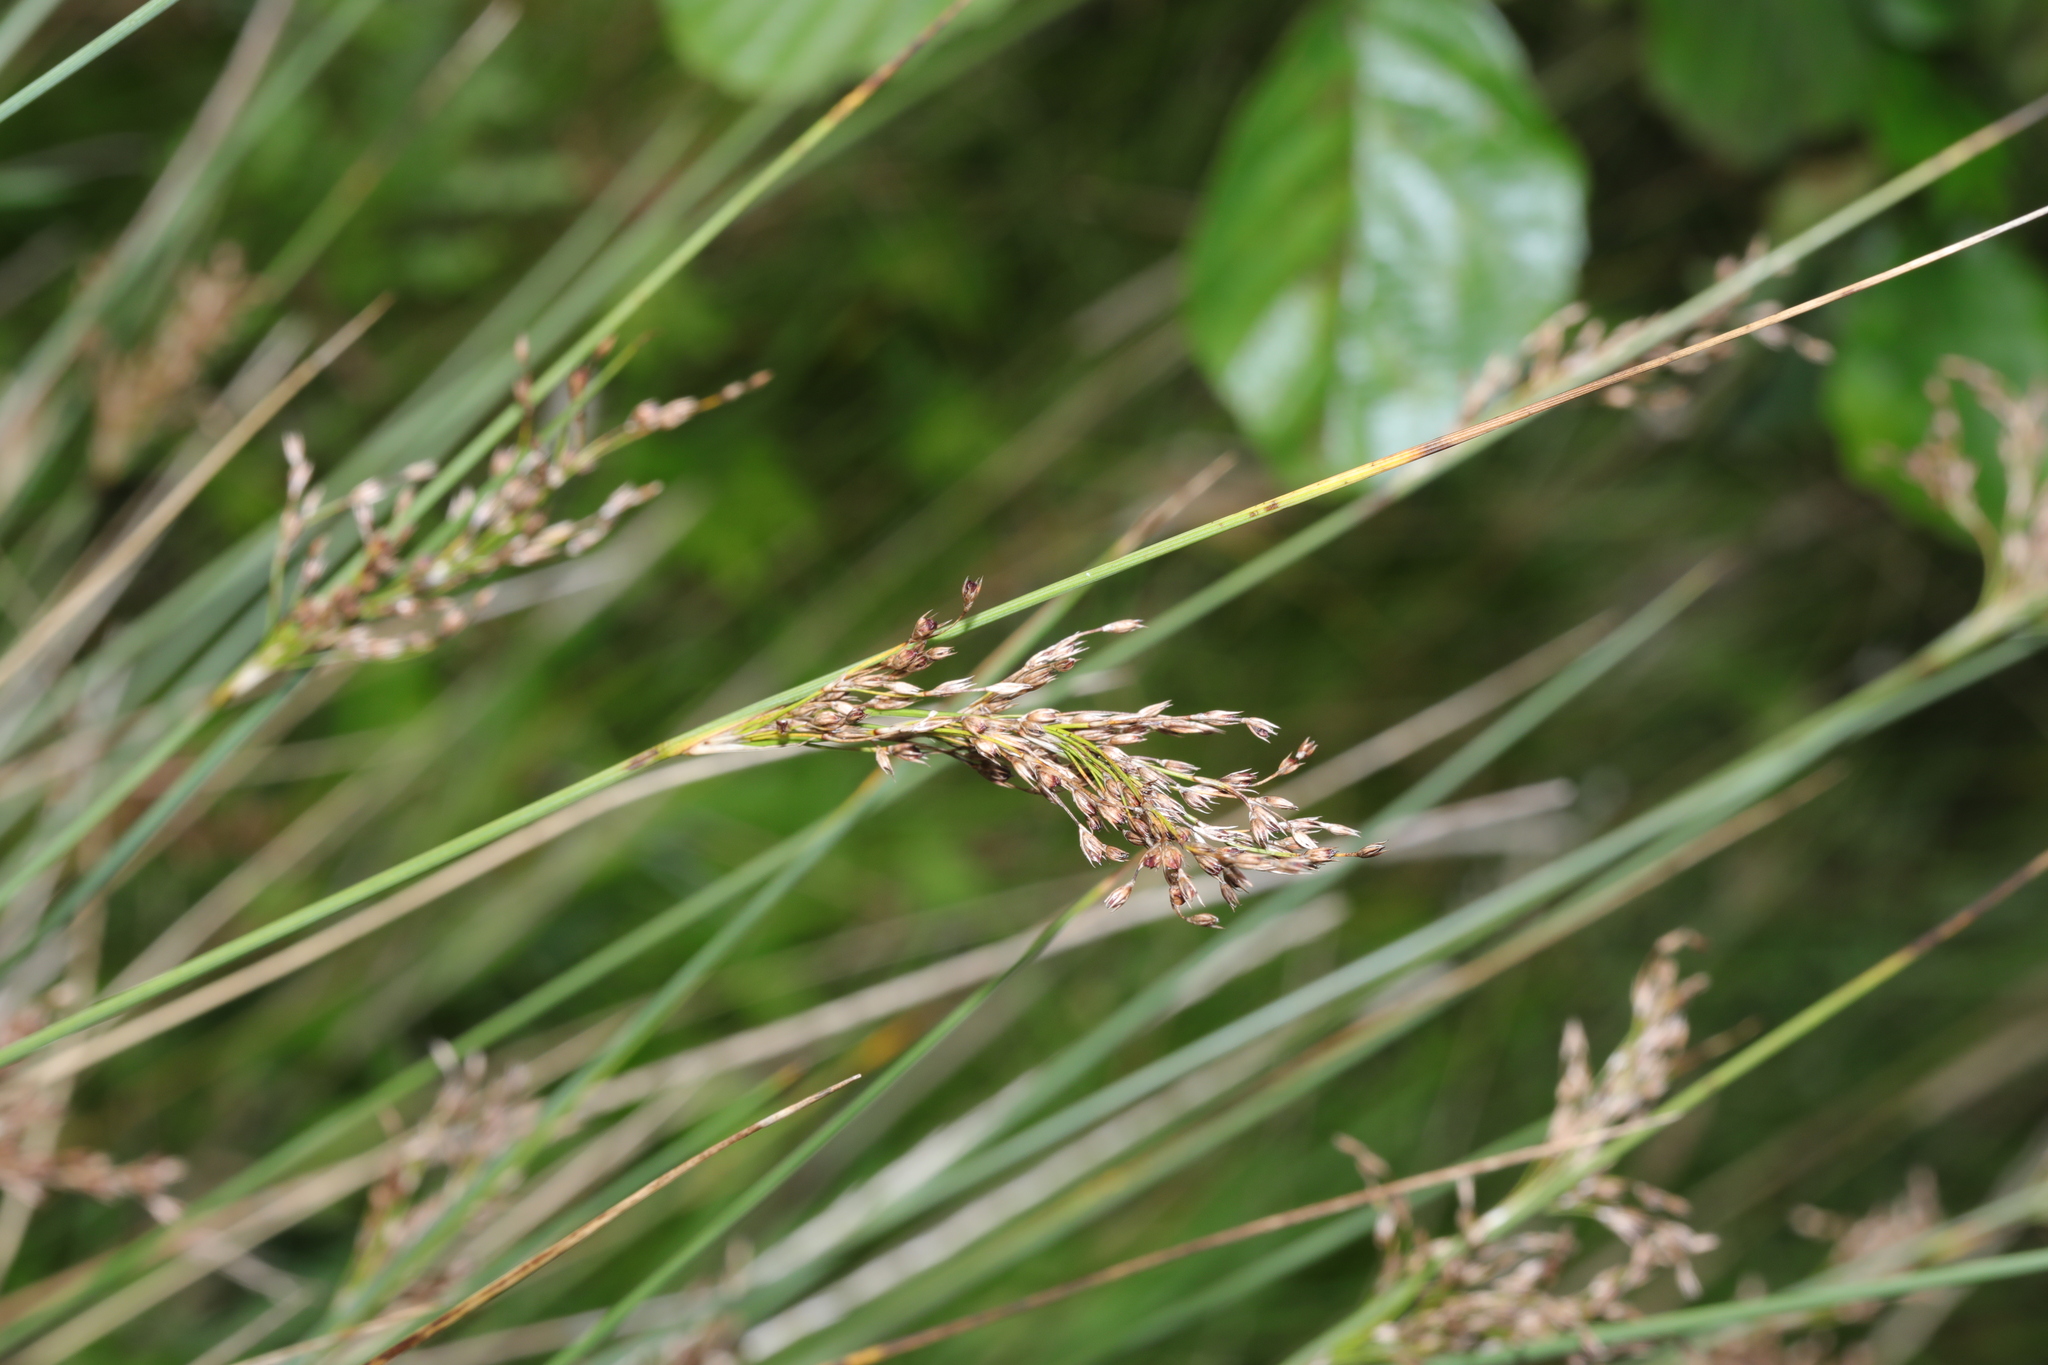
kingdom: Plantae
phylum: Tracheophyta
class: Liliopsida
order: Poales
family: Juncaceae
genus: Juncus
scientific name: Juncus inflexus
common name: Hard rush
